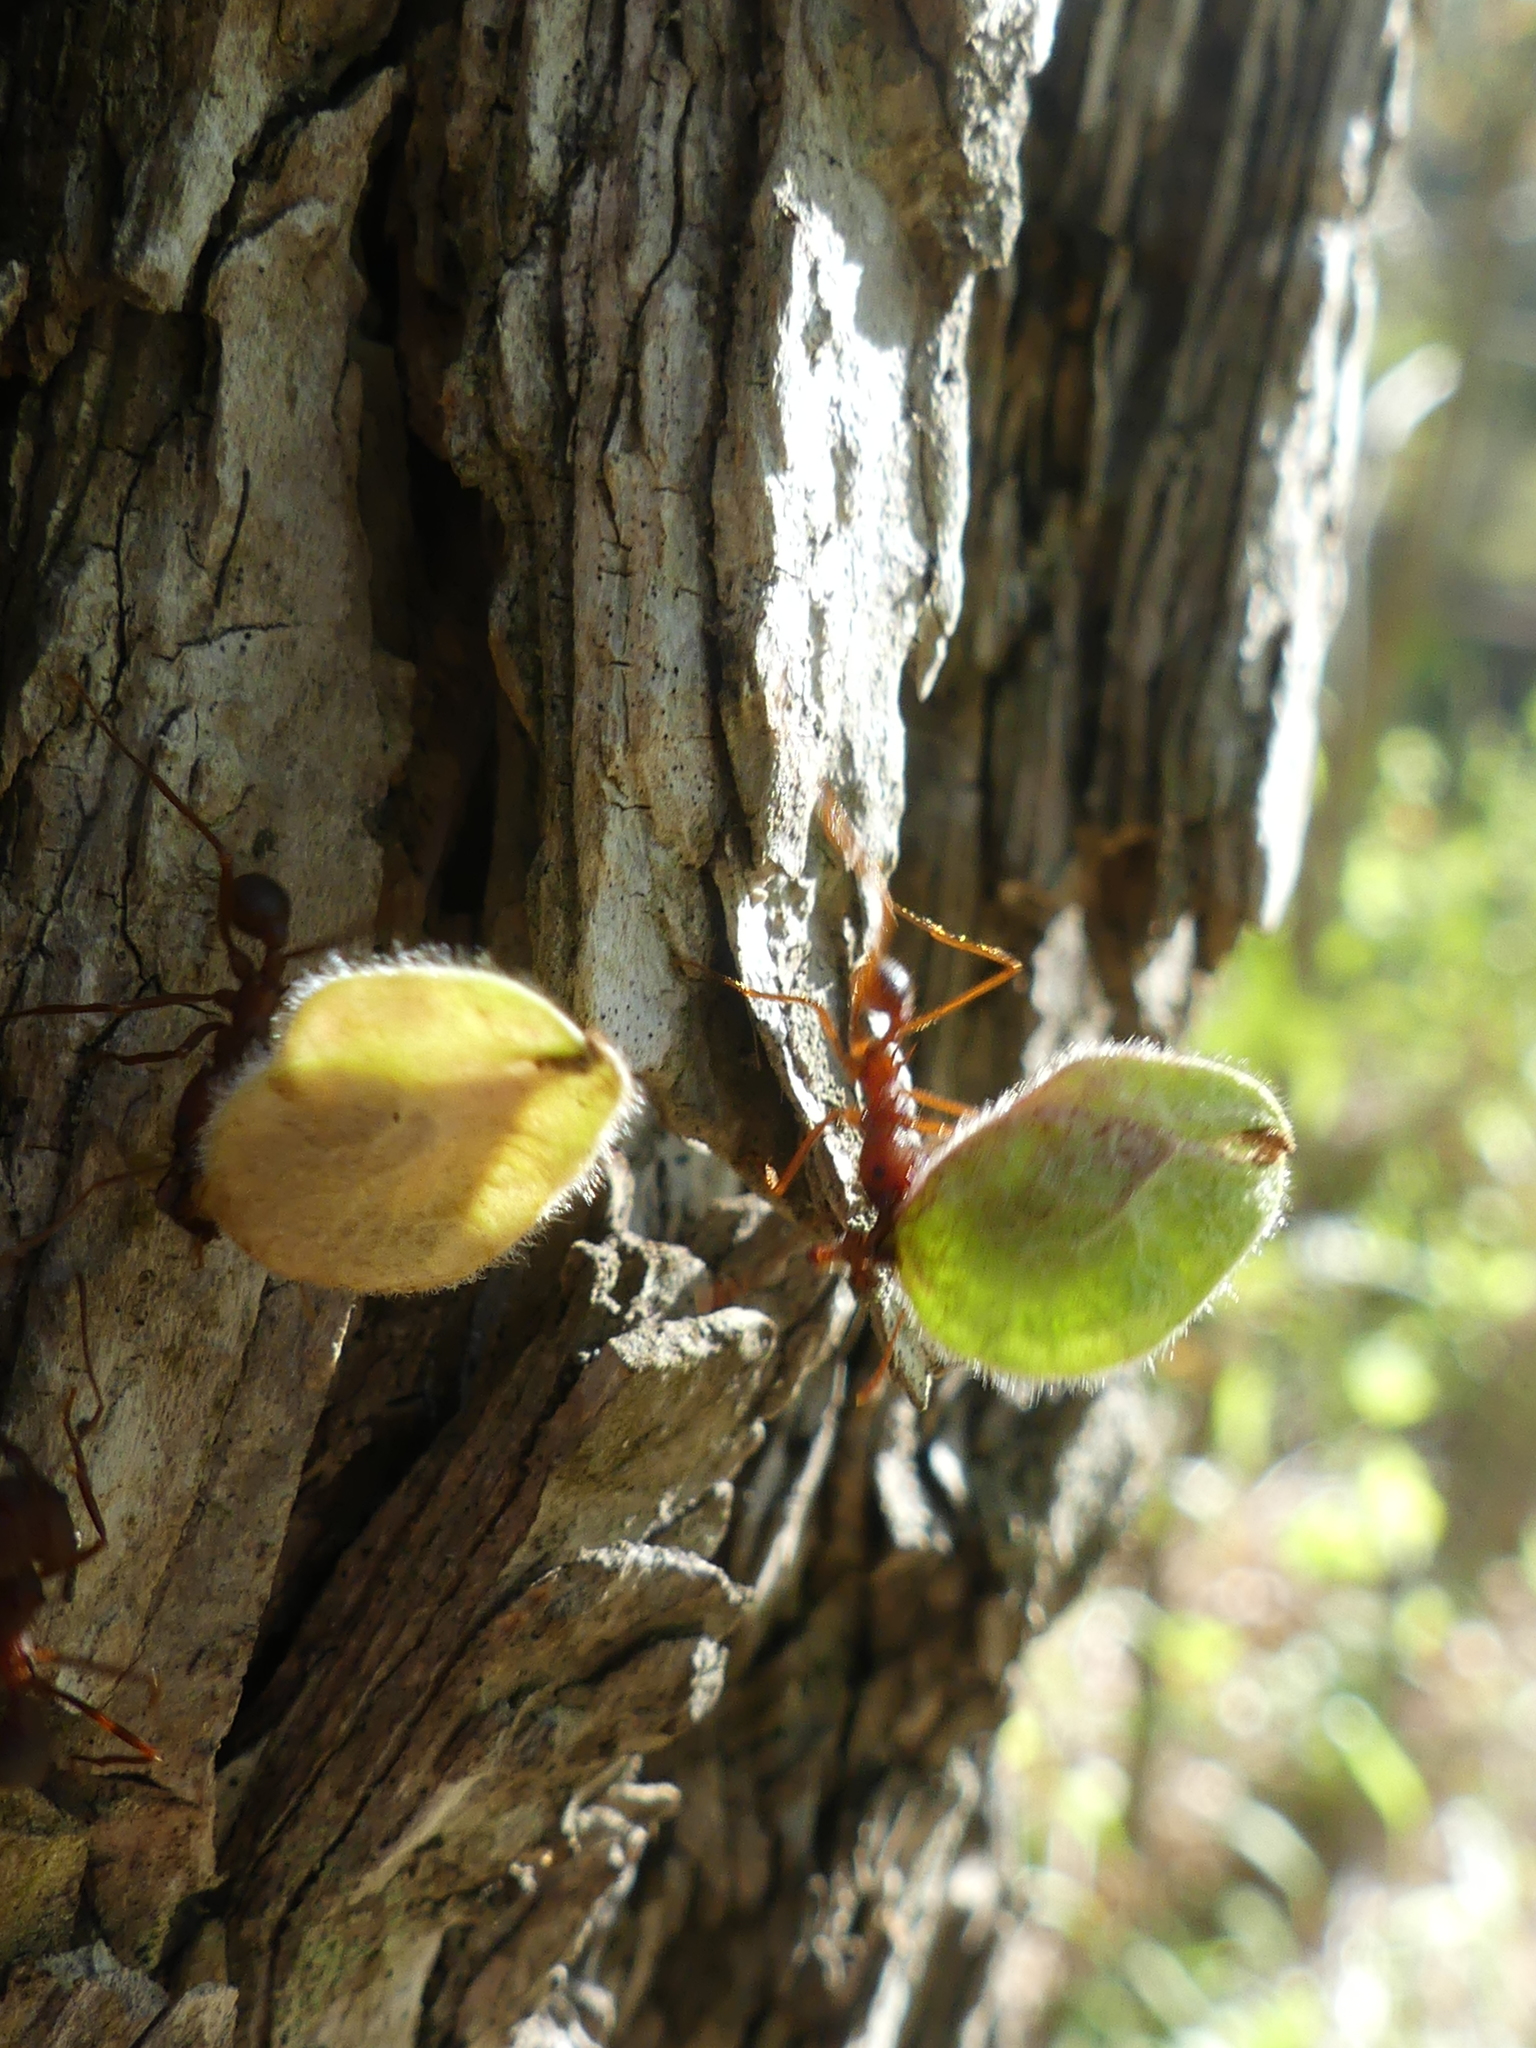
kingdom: Animalia
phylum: Arthropoda
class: Insecta
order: Hymenoptera
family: Formicidae
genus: Atta
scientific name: Atta texana
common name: Texas leafcutting ant
